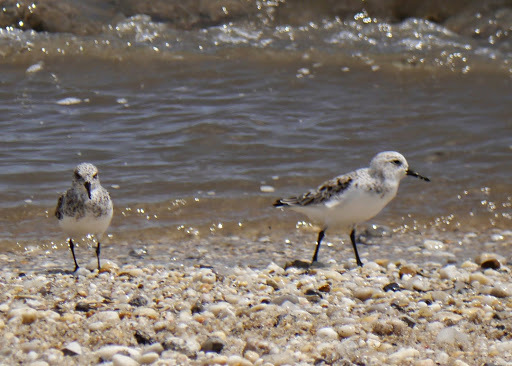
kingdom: Animalia
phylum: Chordata
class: Aves
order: Charadriiformes
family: Scolopacidae
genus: Calidris
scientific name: Calidris alba
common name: Sanderling
